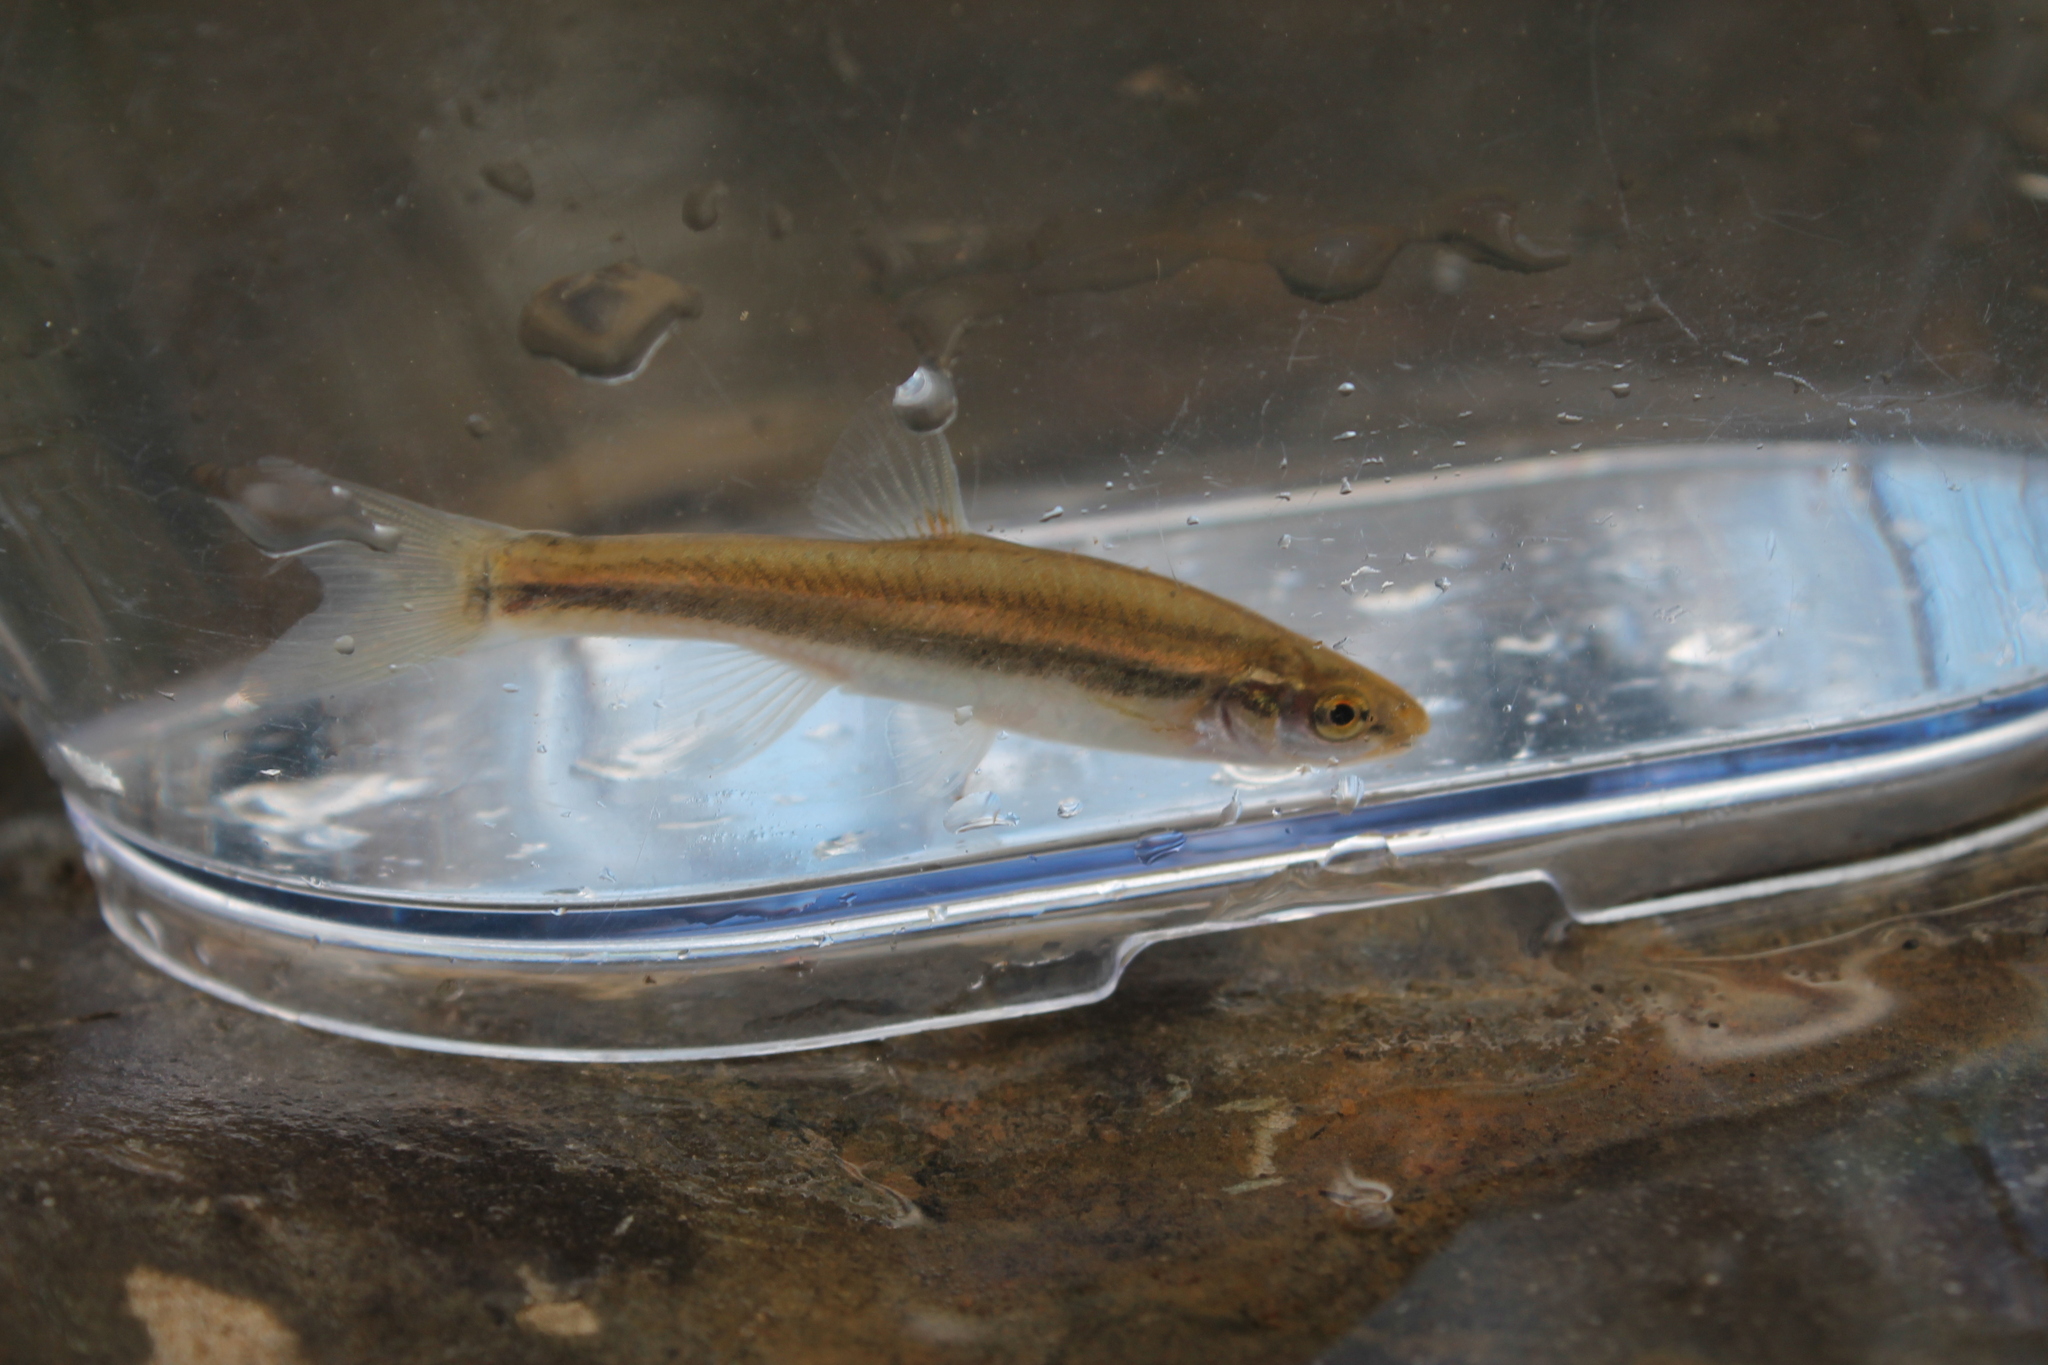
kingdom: Animalia
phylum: Chordata
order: Cypriniformes
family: Cyprinidae
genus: Rhinichthys
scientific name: Rhinichthys obtusus
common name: Western blacknose dace
